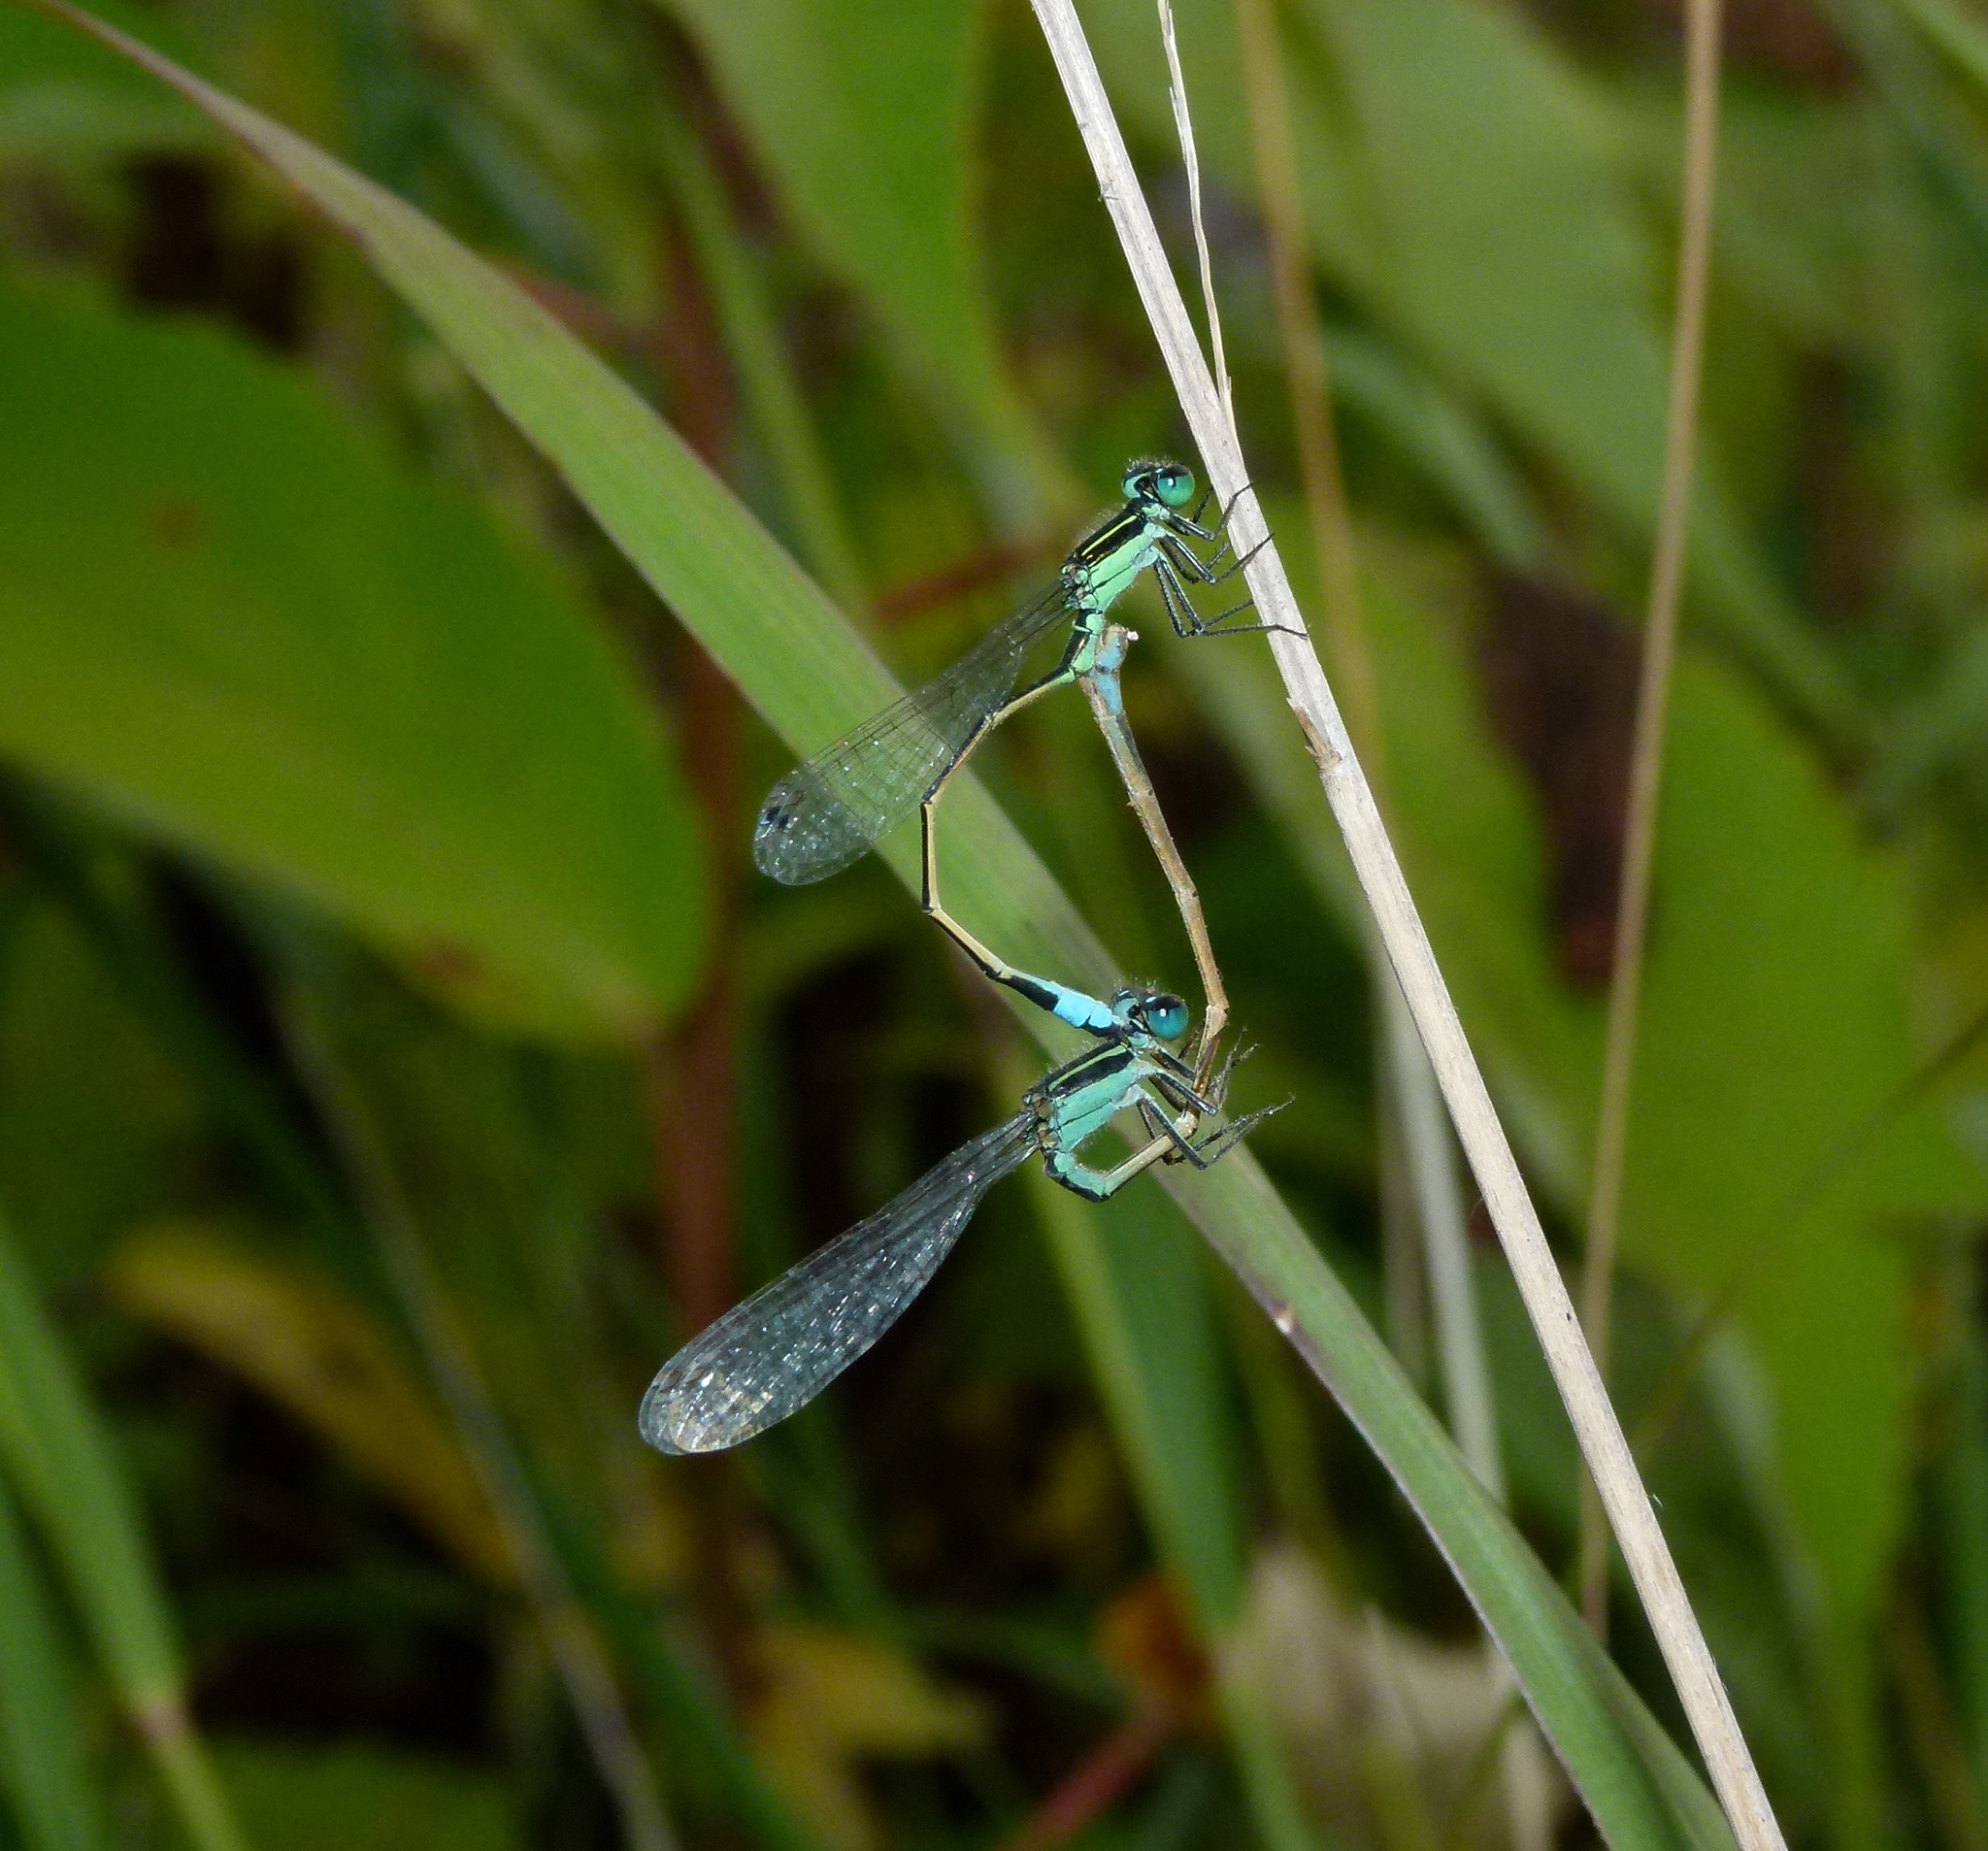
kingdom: Animalia
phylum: Arthropoda
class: Insecta
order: Odonata
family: Coenagrionidae
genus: Ischnura
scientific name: Ischnura ramburii
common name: Rambur's forktail
